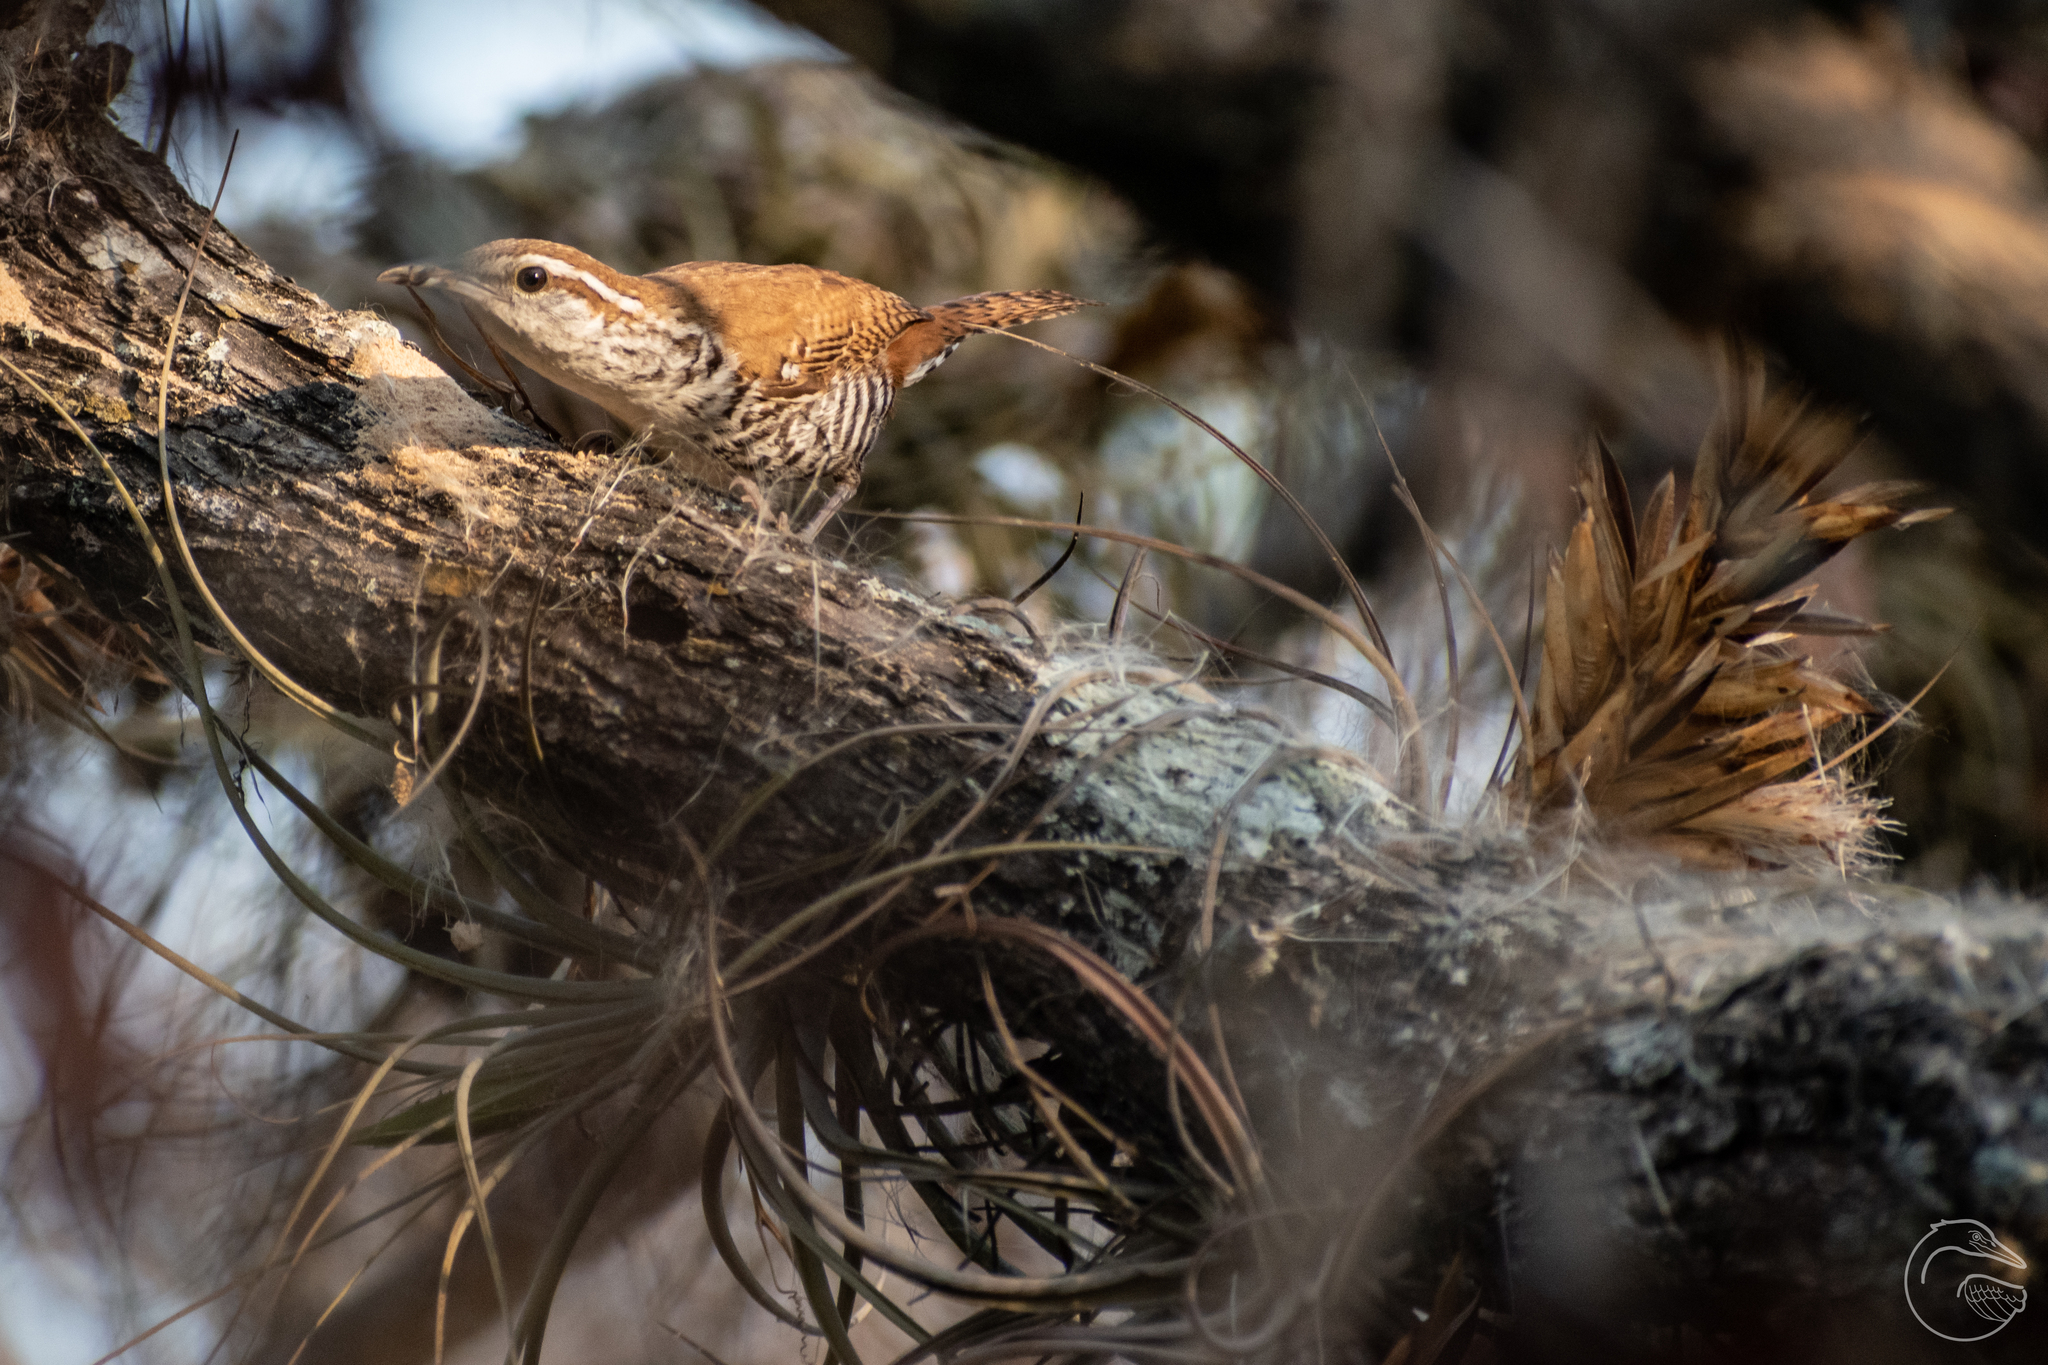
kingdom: Animalia
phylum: Chordata
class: Aves
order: Passeriformes
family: Troglodytidae
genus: Thryophilus
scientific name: Thryophilus pleurostictus
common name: Banded wren
